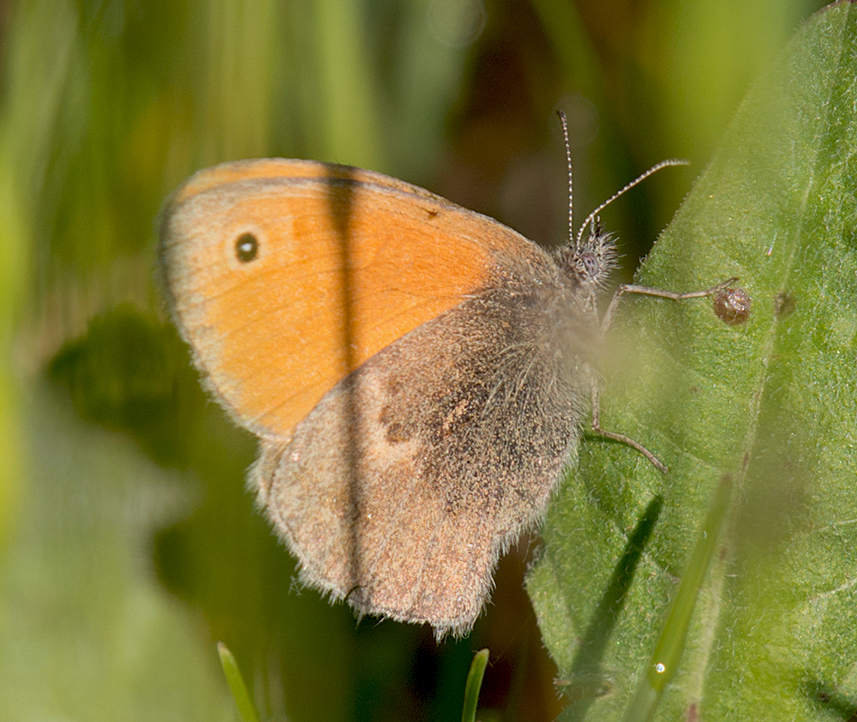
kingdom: Animalia
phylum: Arthropoda
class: Insecta
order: Lepidoptera
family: Nymphalidae
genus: Coenonympha
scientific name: Coenonympha pamphilus
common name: Small heath
